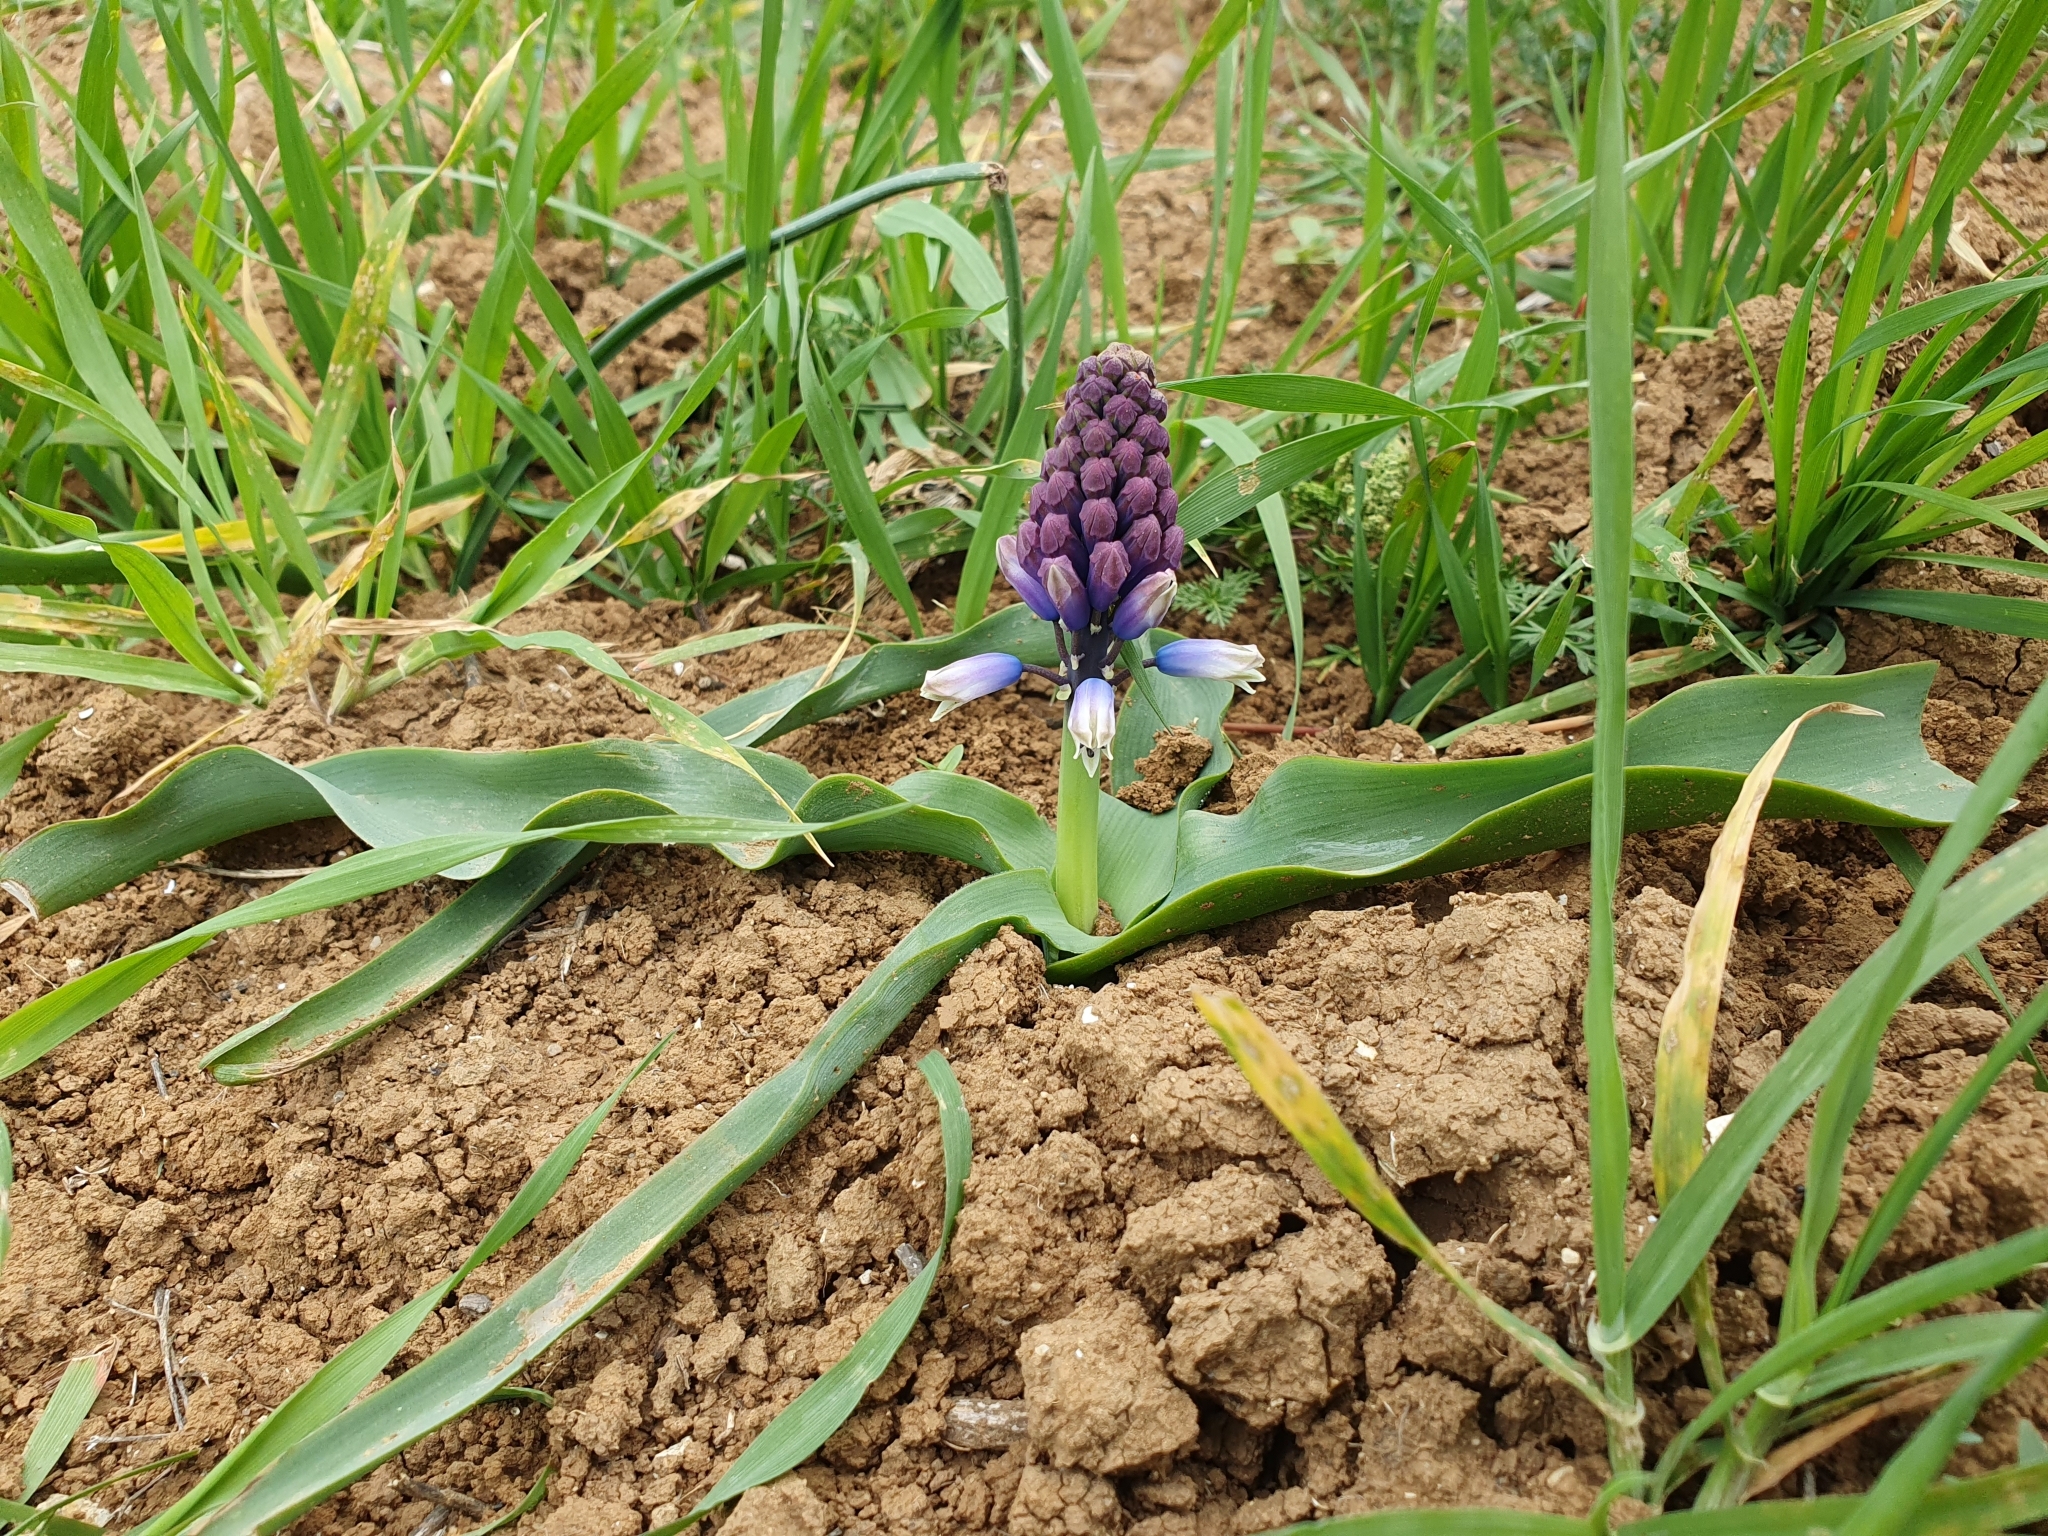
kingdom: Plantae
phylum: Tracheophyta
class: Liliopsida
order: Asparagales
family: Asparagaceae
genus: Bellevalia
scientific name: Bellevalia mauritanica
